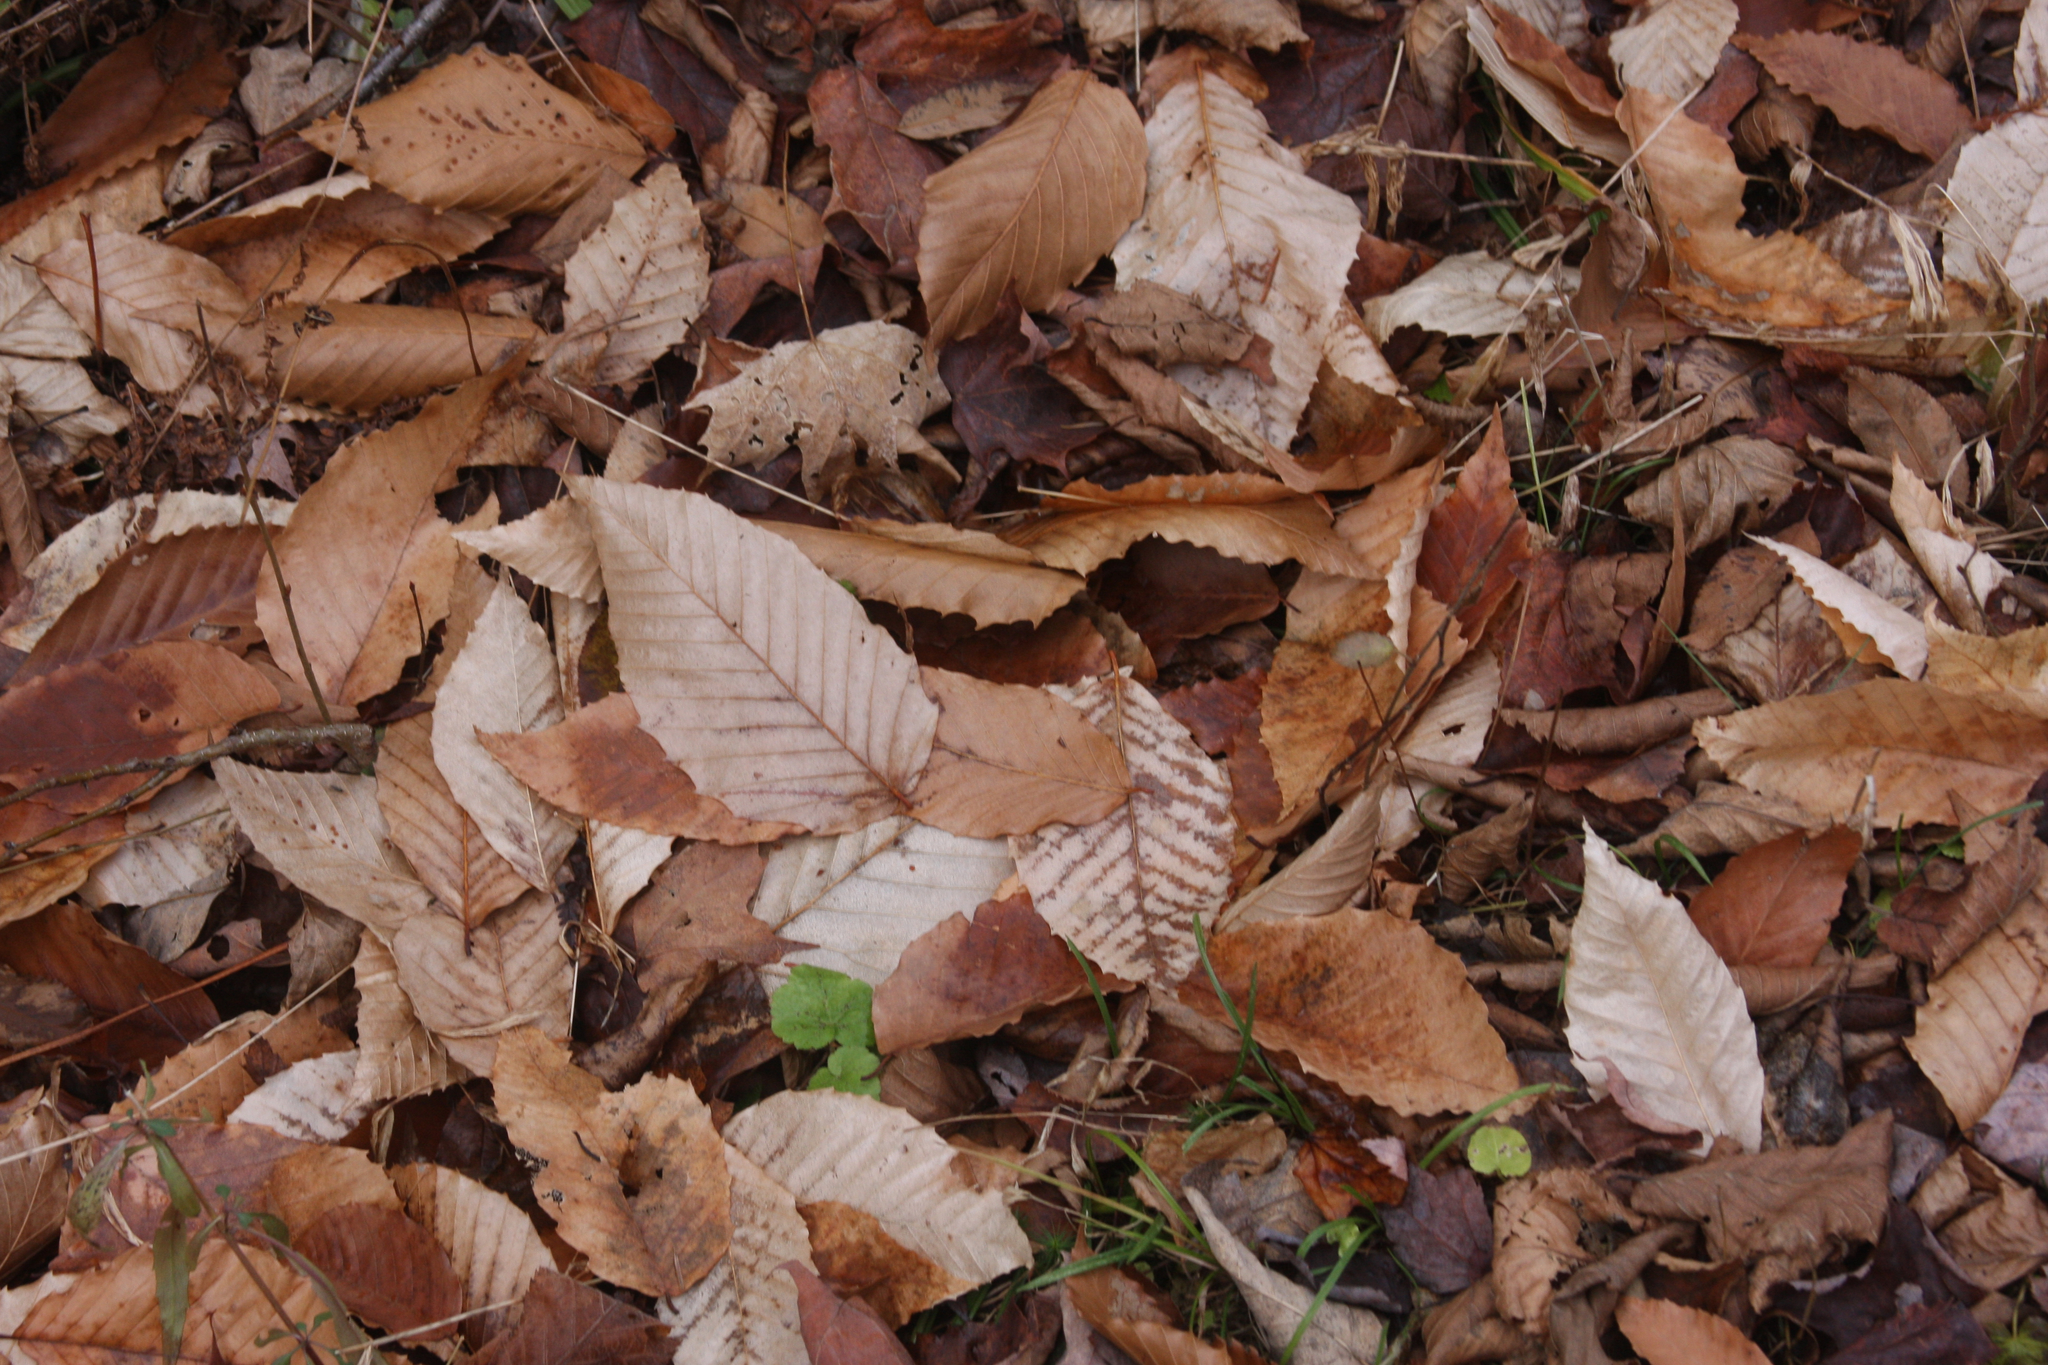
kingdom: Plantae
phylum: Tracheophyta
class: Magnoliopsida
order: Fagales
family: Fagaceae
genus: Fagus
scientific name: Fagus grandifolia
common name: American beech
